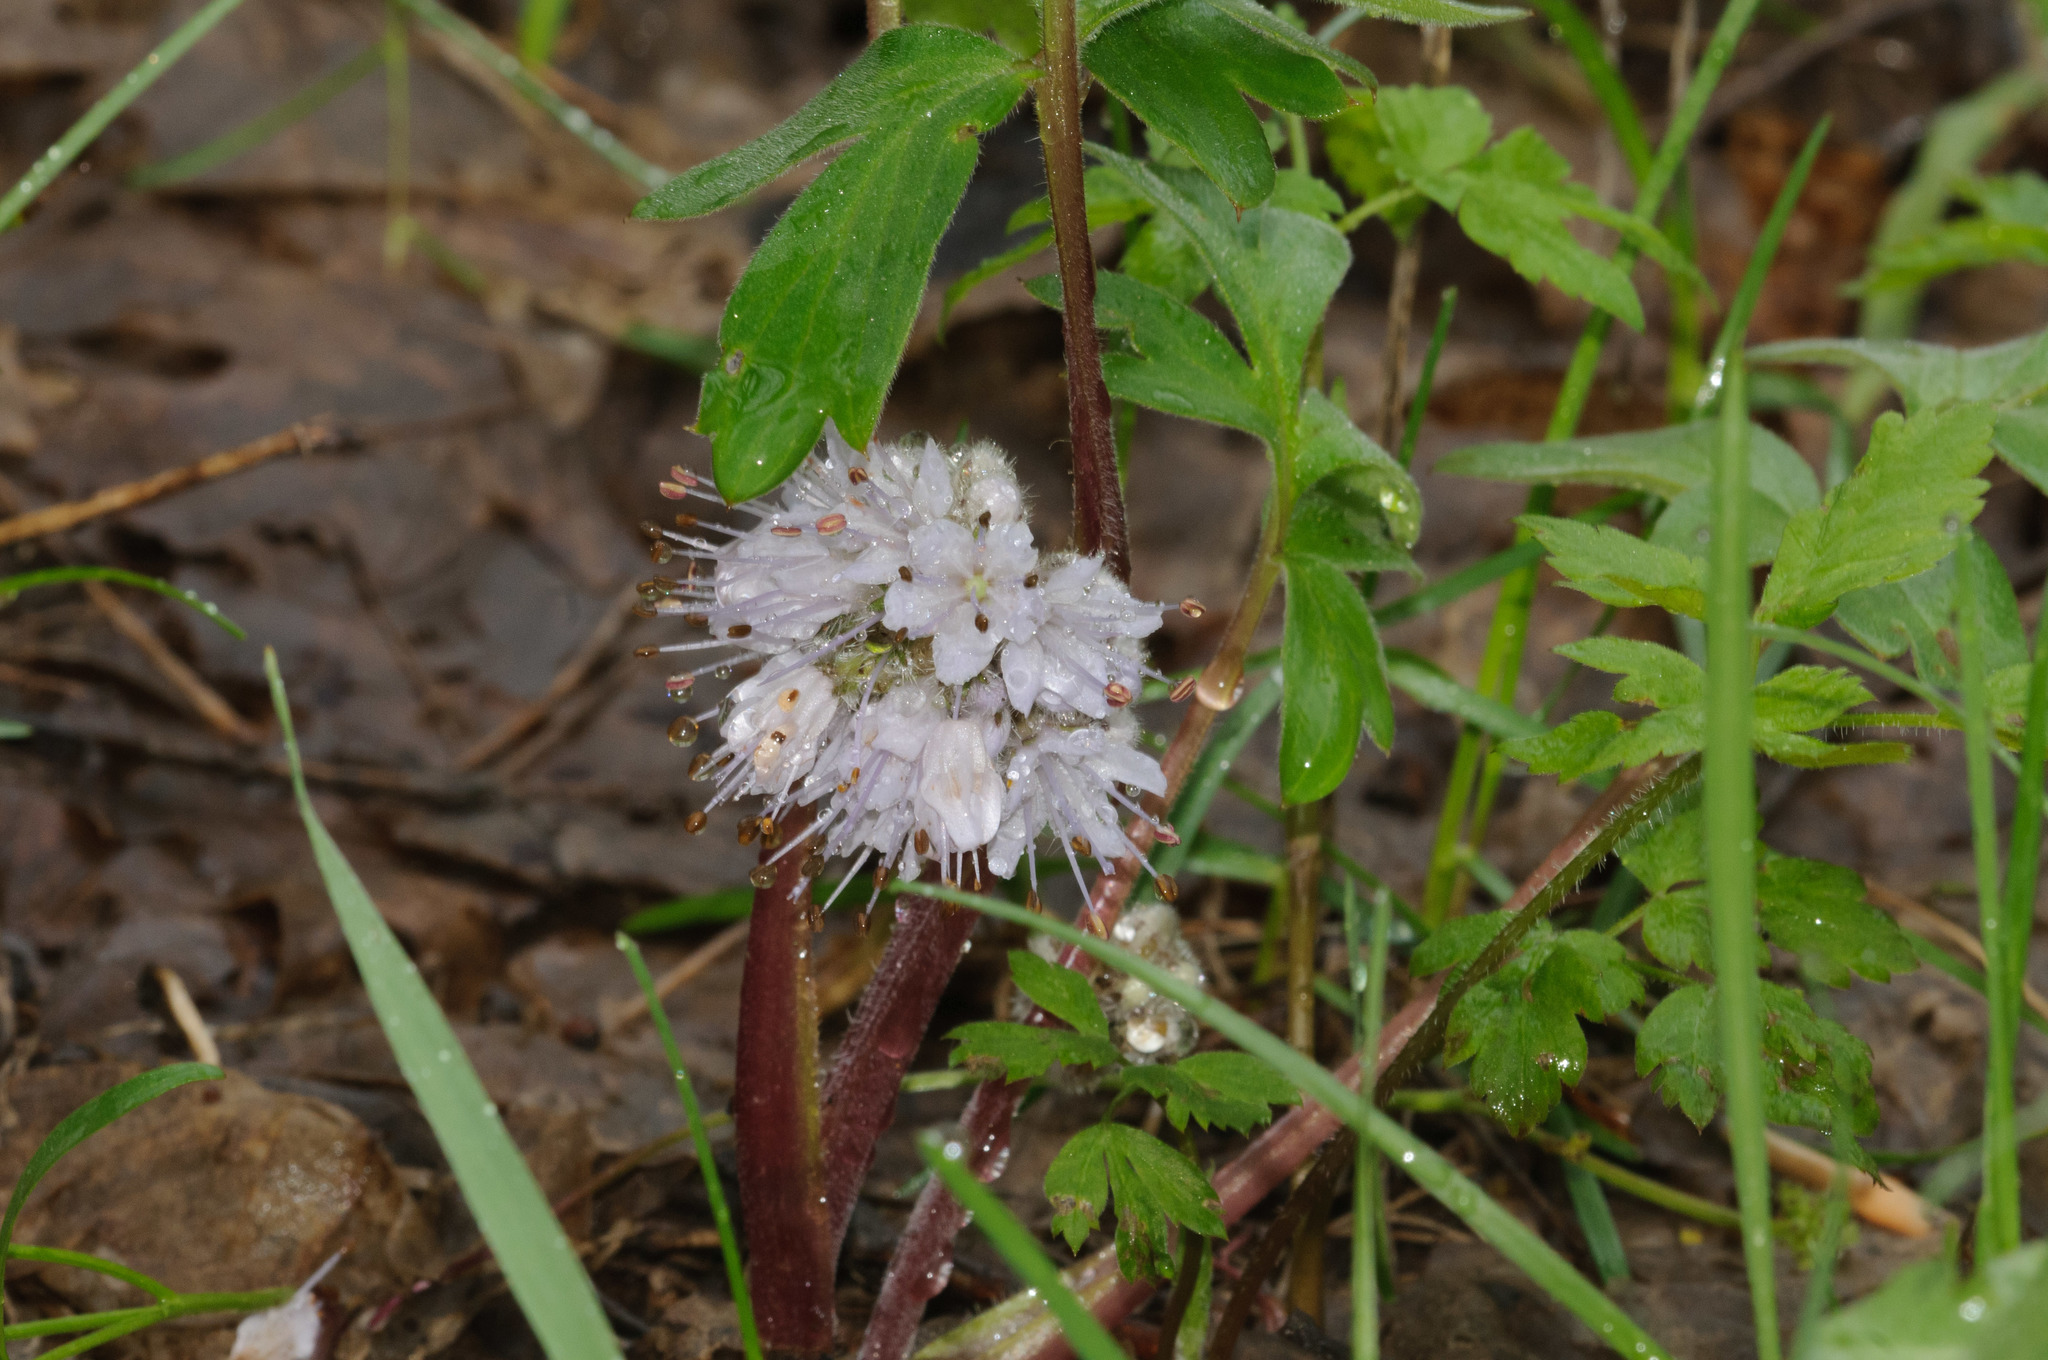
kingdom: Plantae
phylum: Tracheophyta
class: Magnoliopsida
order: Boraginales
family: Hydrophyllaceae
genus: Hydrophyllum
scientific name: Hydrophyllum capitatum
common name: Woollen-breeches
